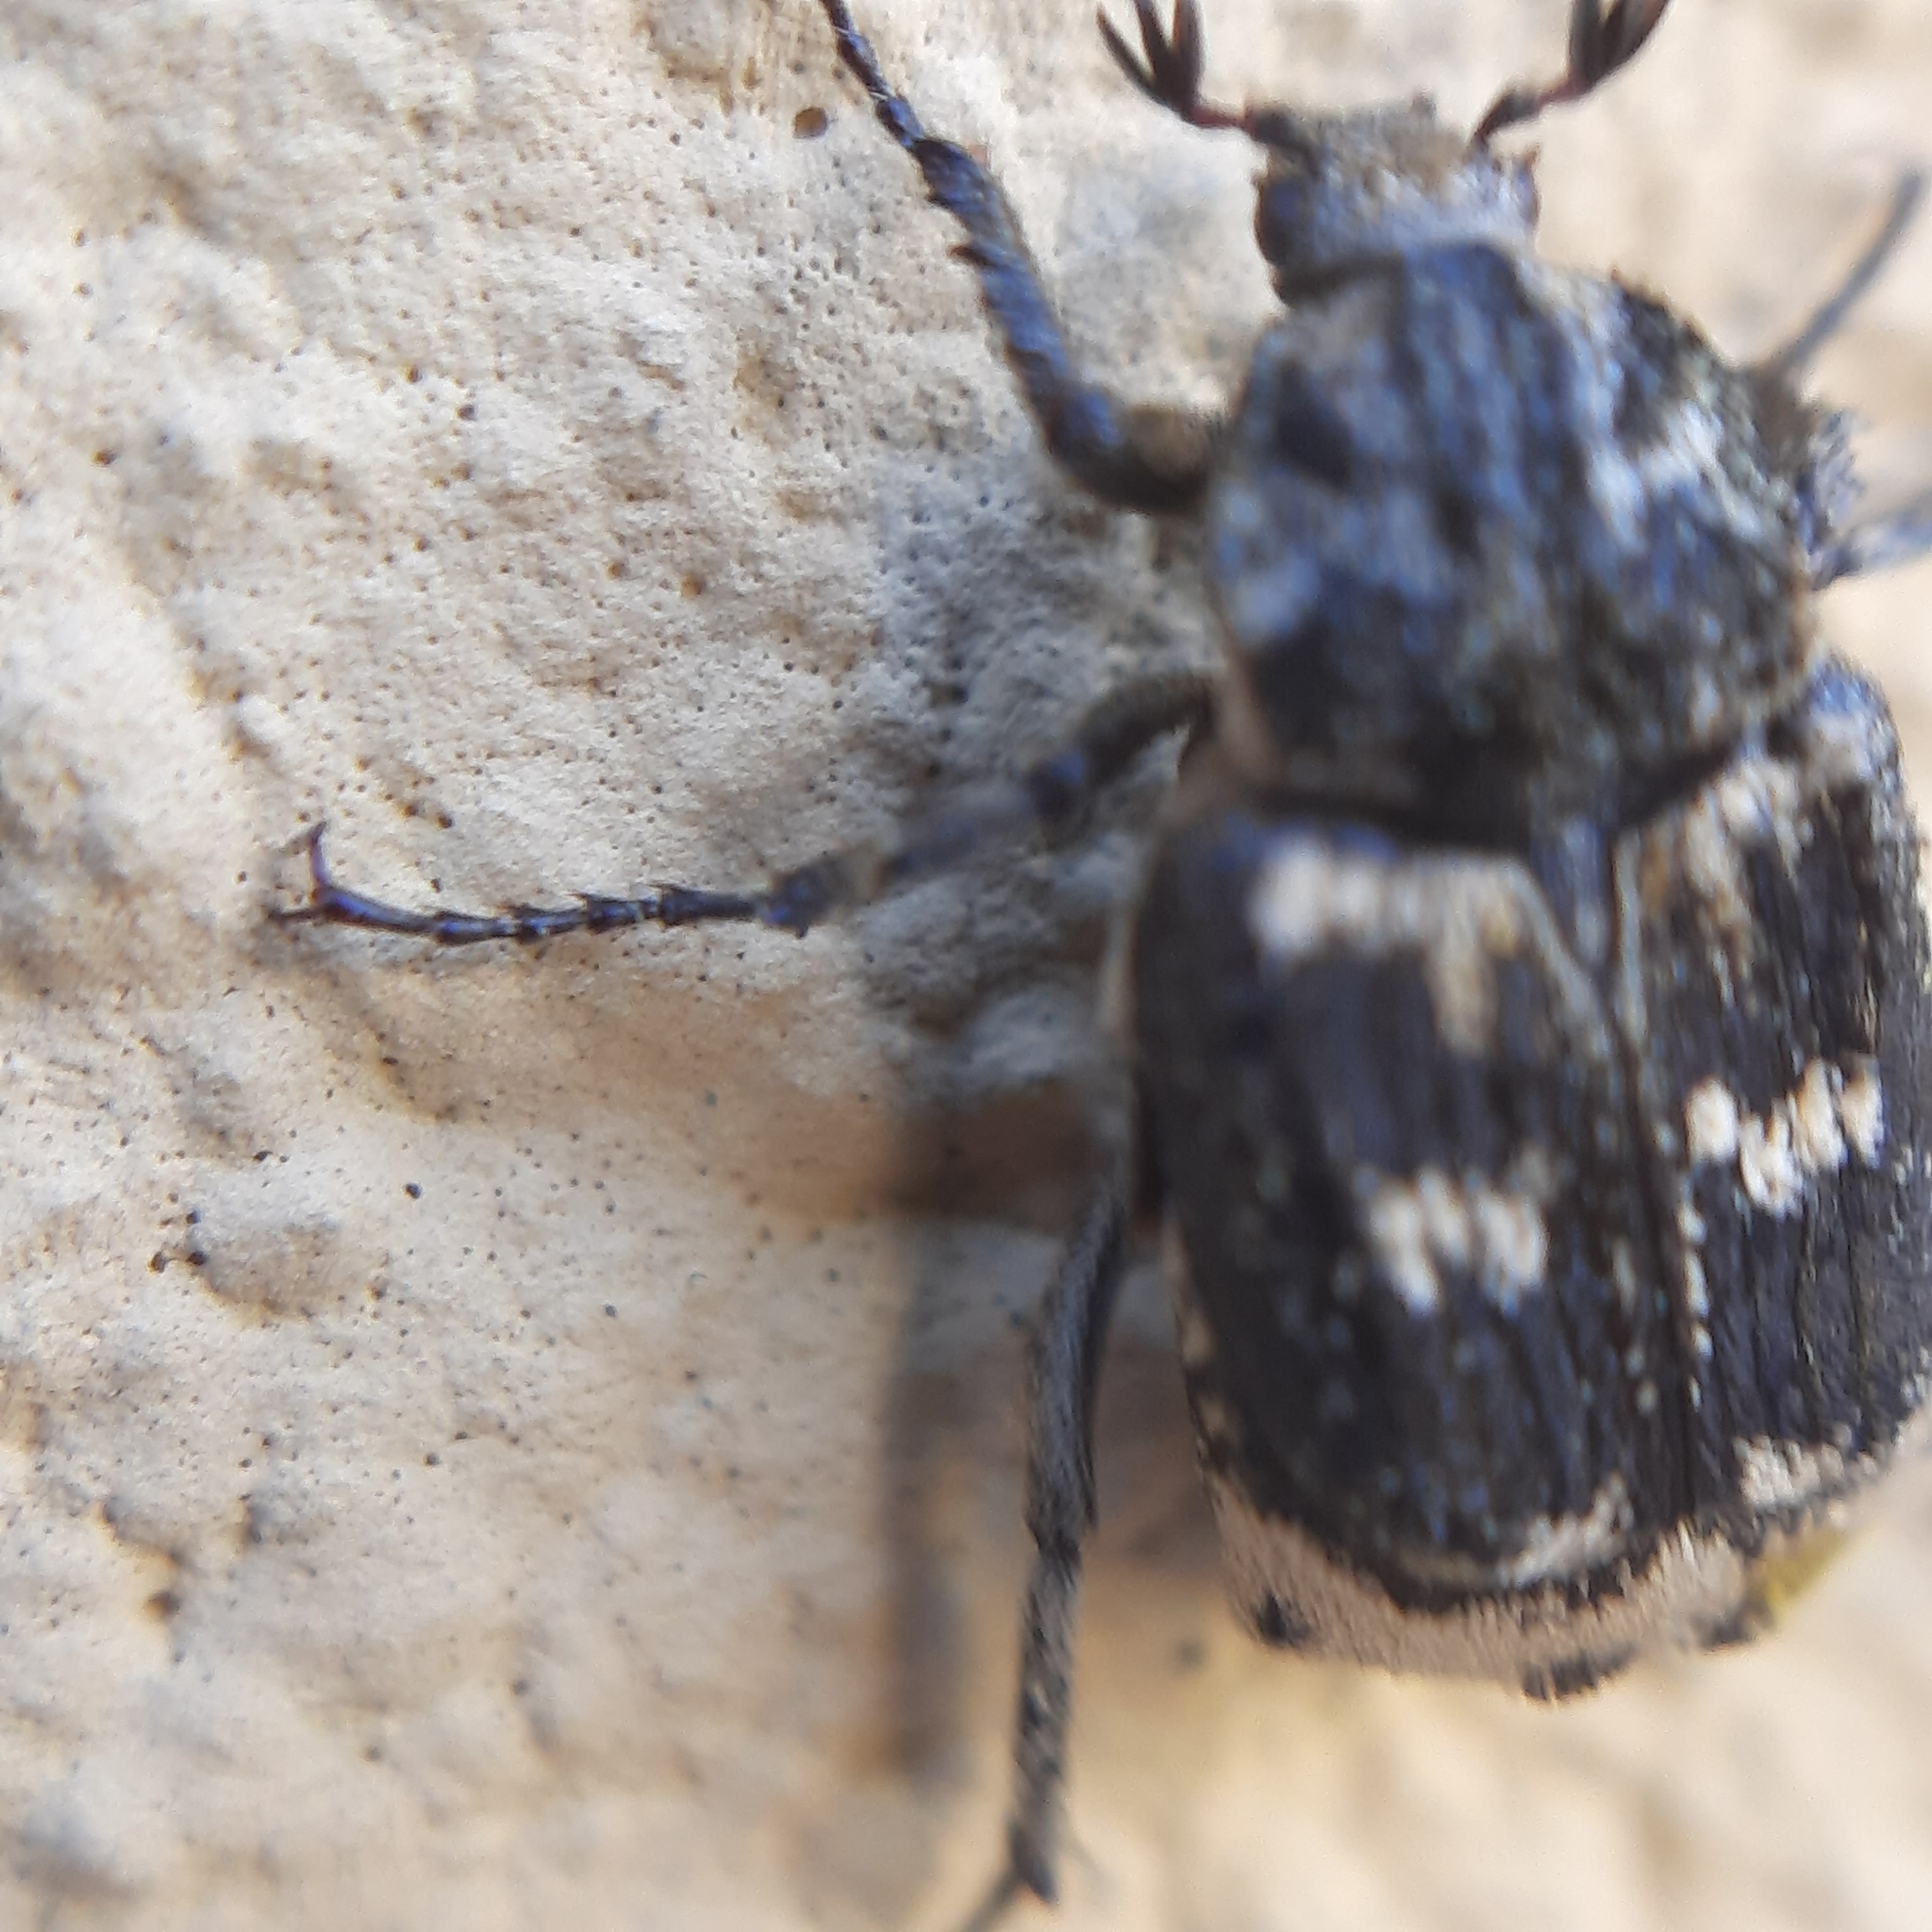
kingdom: Animalia
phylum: Arthropoda
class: Insecta
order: Coleoptera
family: Scarabaeidae
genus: Valgus
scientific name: Valgus hemipterus
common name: Bug flower chafer
